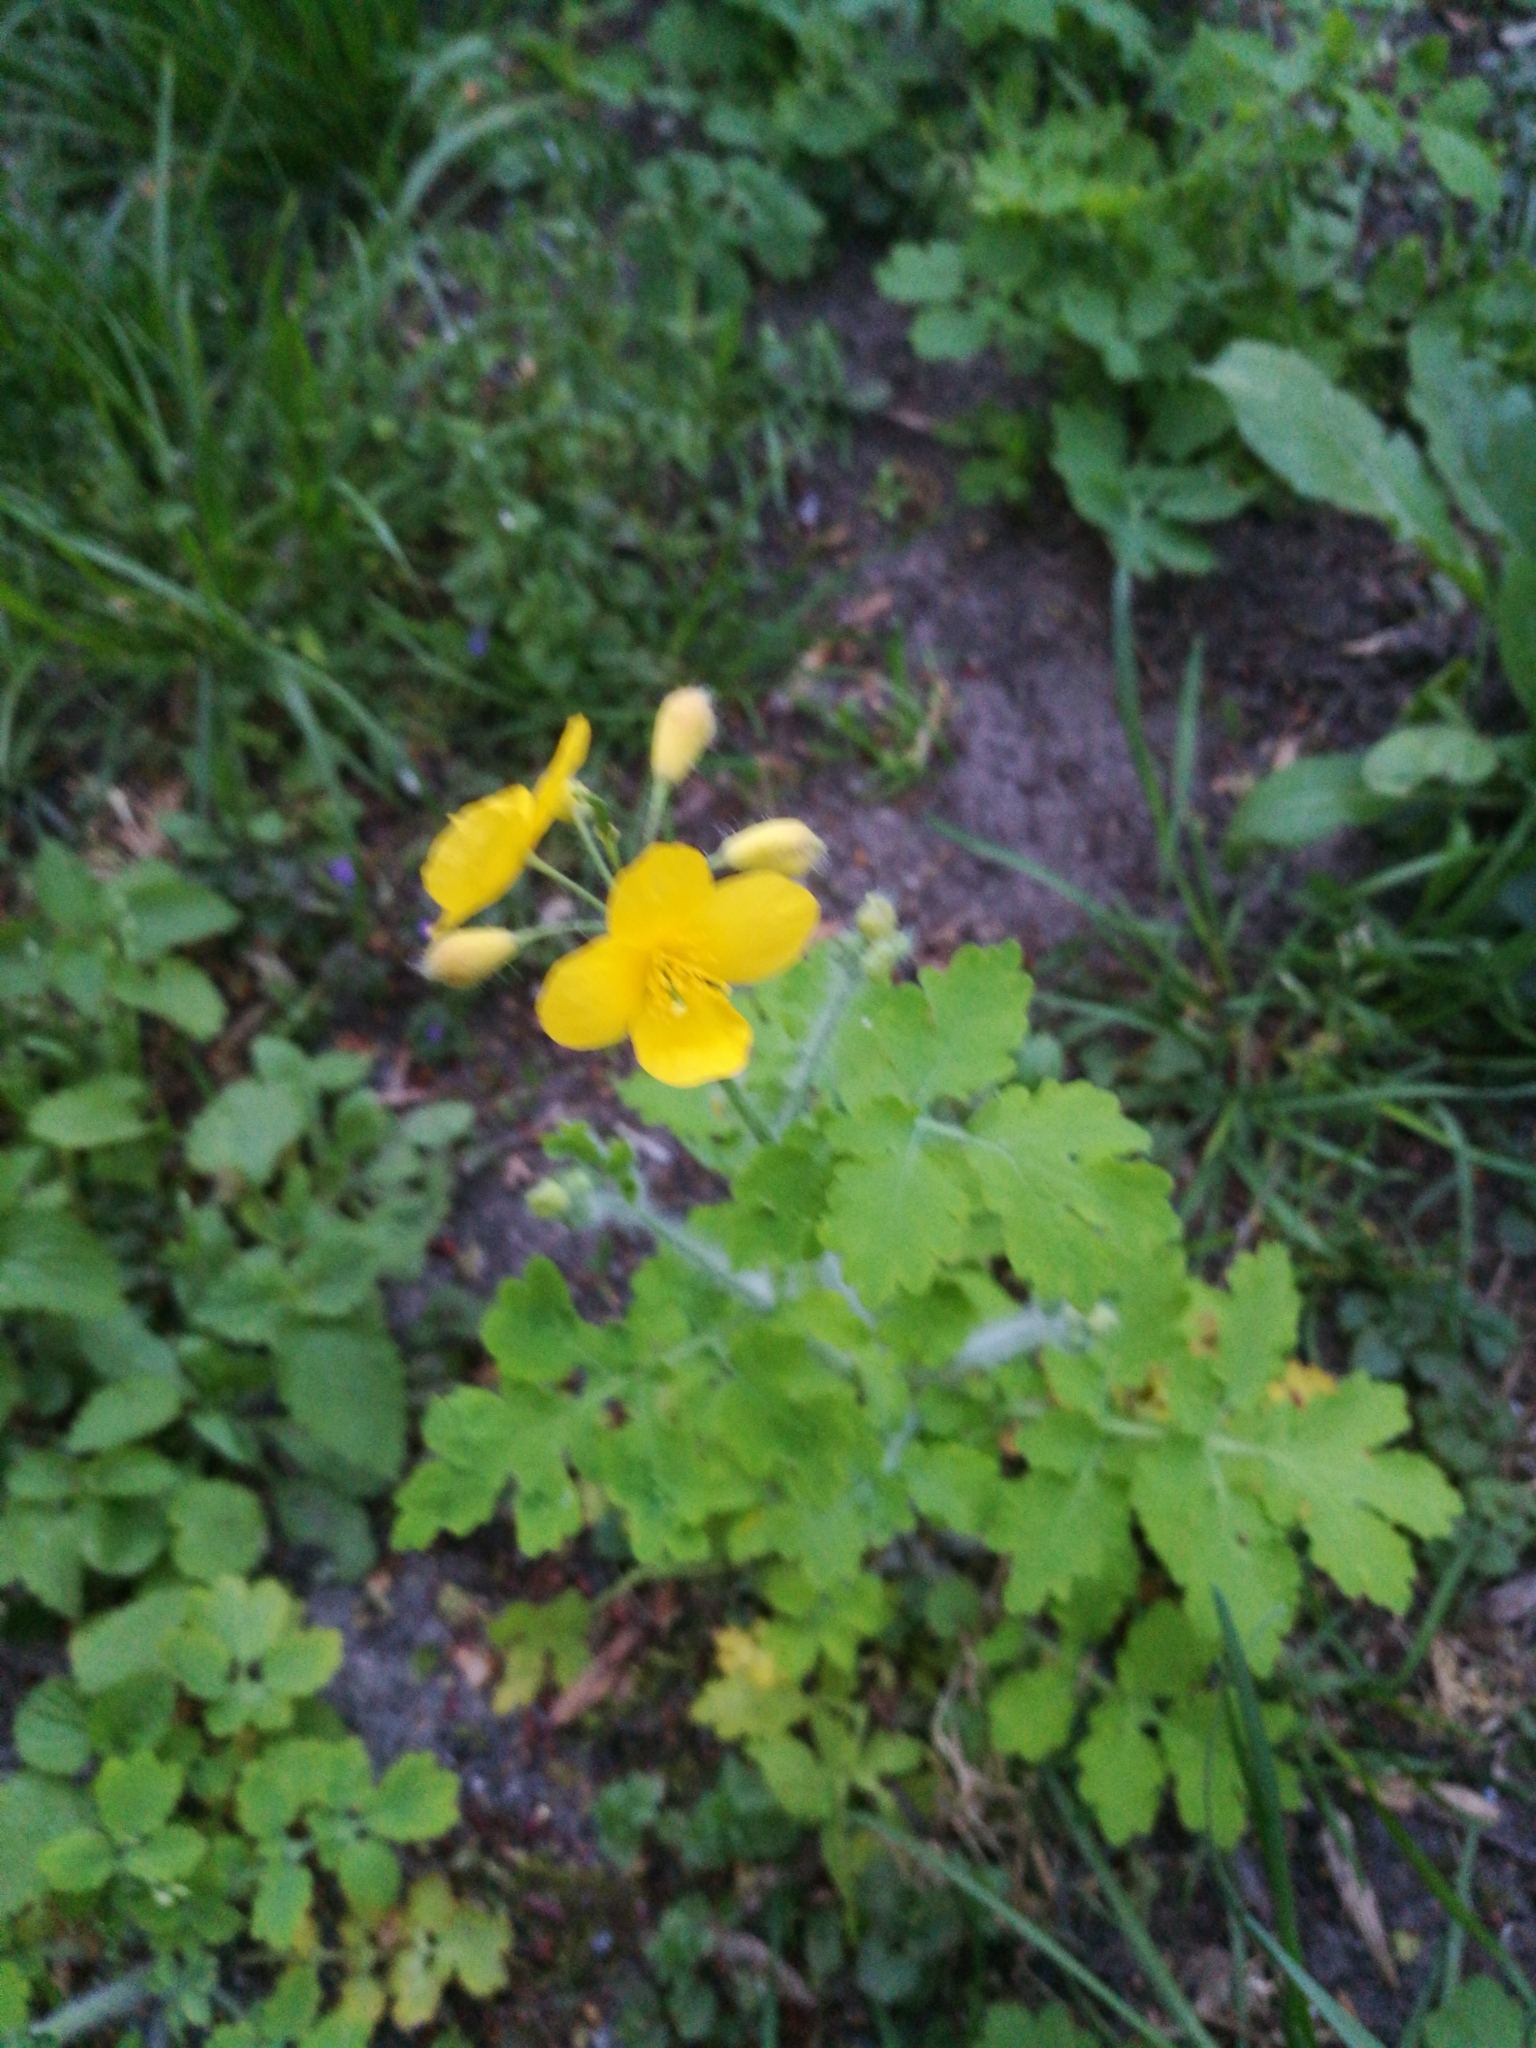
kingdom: Plantae
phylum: Tracheophyta
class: Magnoliopsida
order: Ranunculales
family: Papaveraceae
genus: Chelidonium
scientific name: Chelidonium majus
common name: Greater celandine
